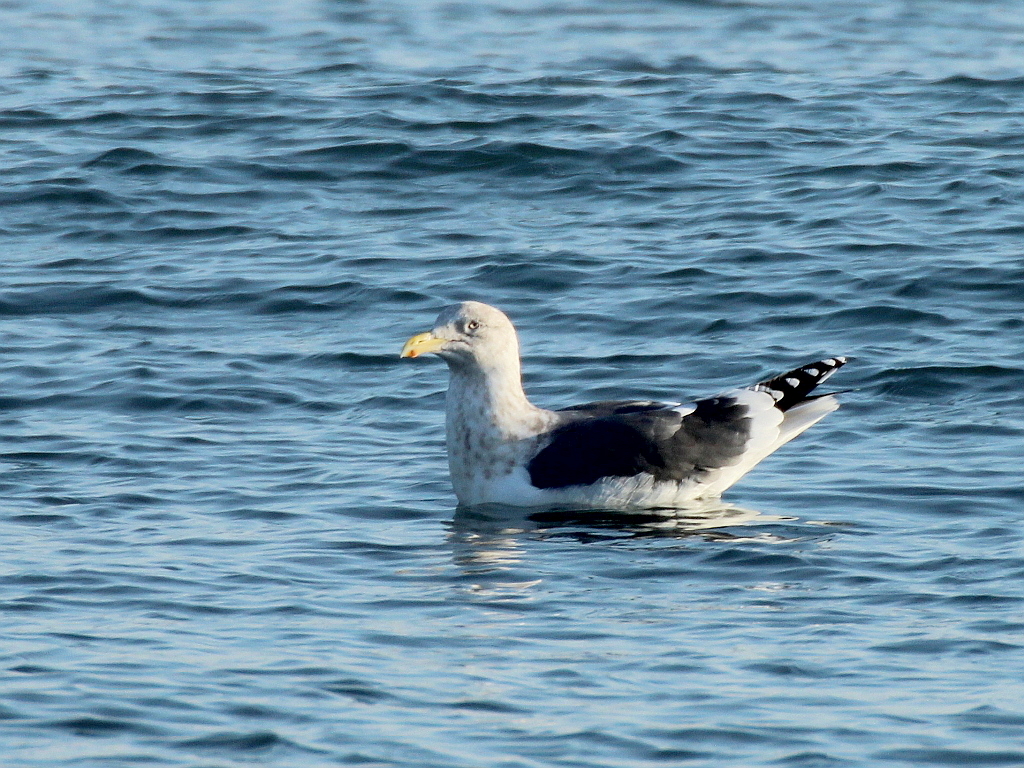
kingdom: Animalia
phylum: Chordata
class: Aves
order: Charadriiformes
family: Laridae
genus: Larus
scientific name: Larus schistisagus
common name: Slaty-backed gull
